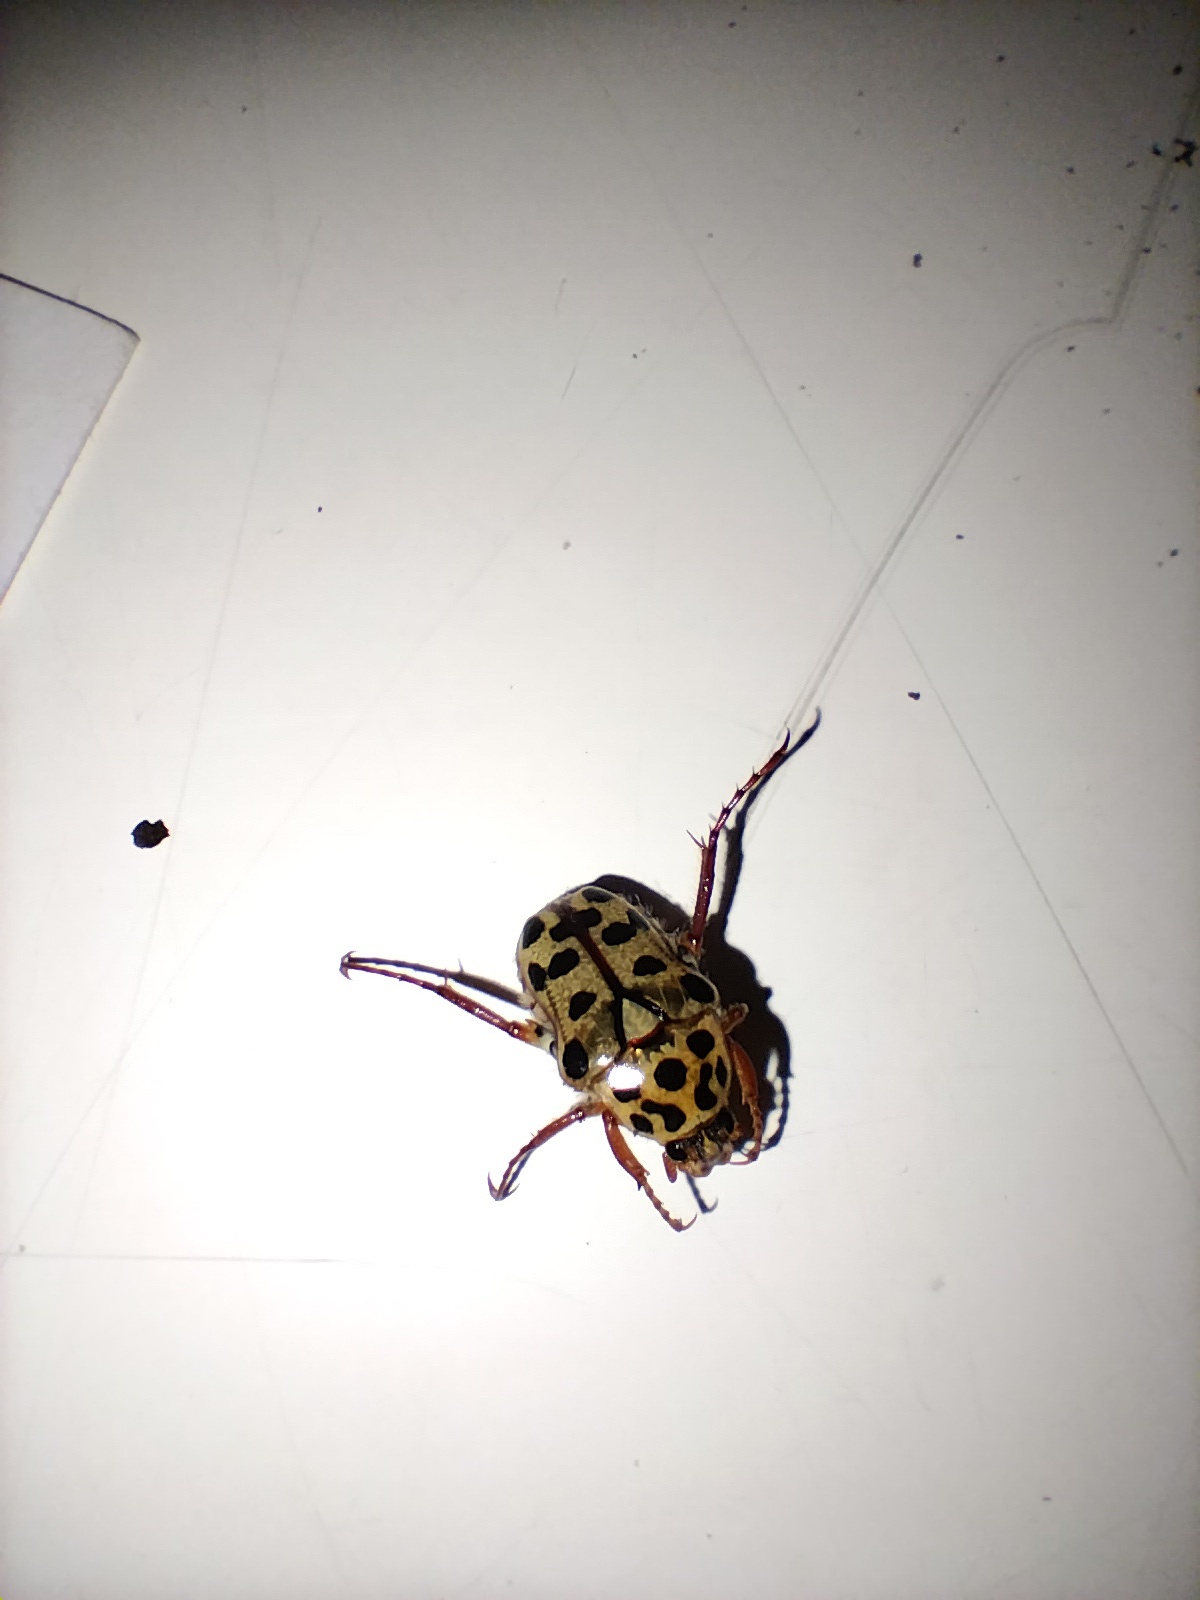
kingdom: Animalia
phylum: Arthropoda
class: Insecta
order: Coleoptera
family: Scarabaeidae
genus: Neorrhina
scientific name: Neorrhina punctatum
